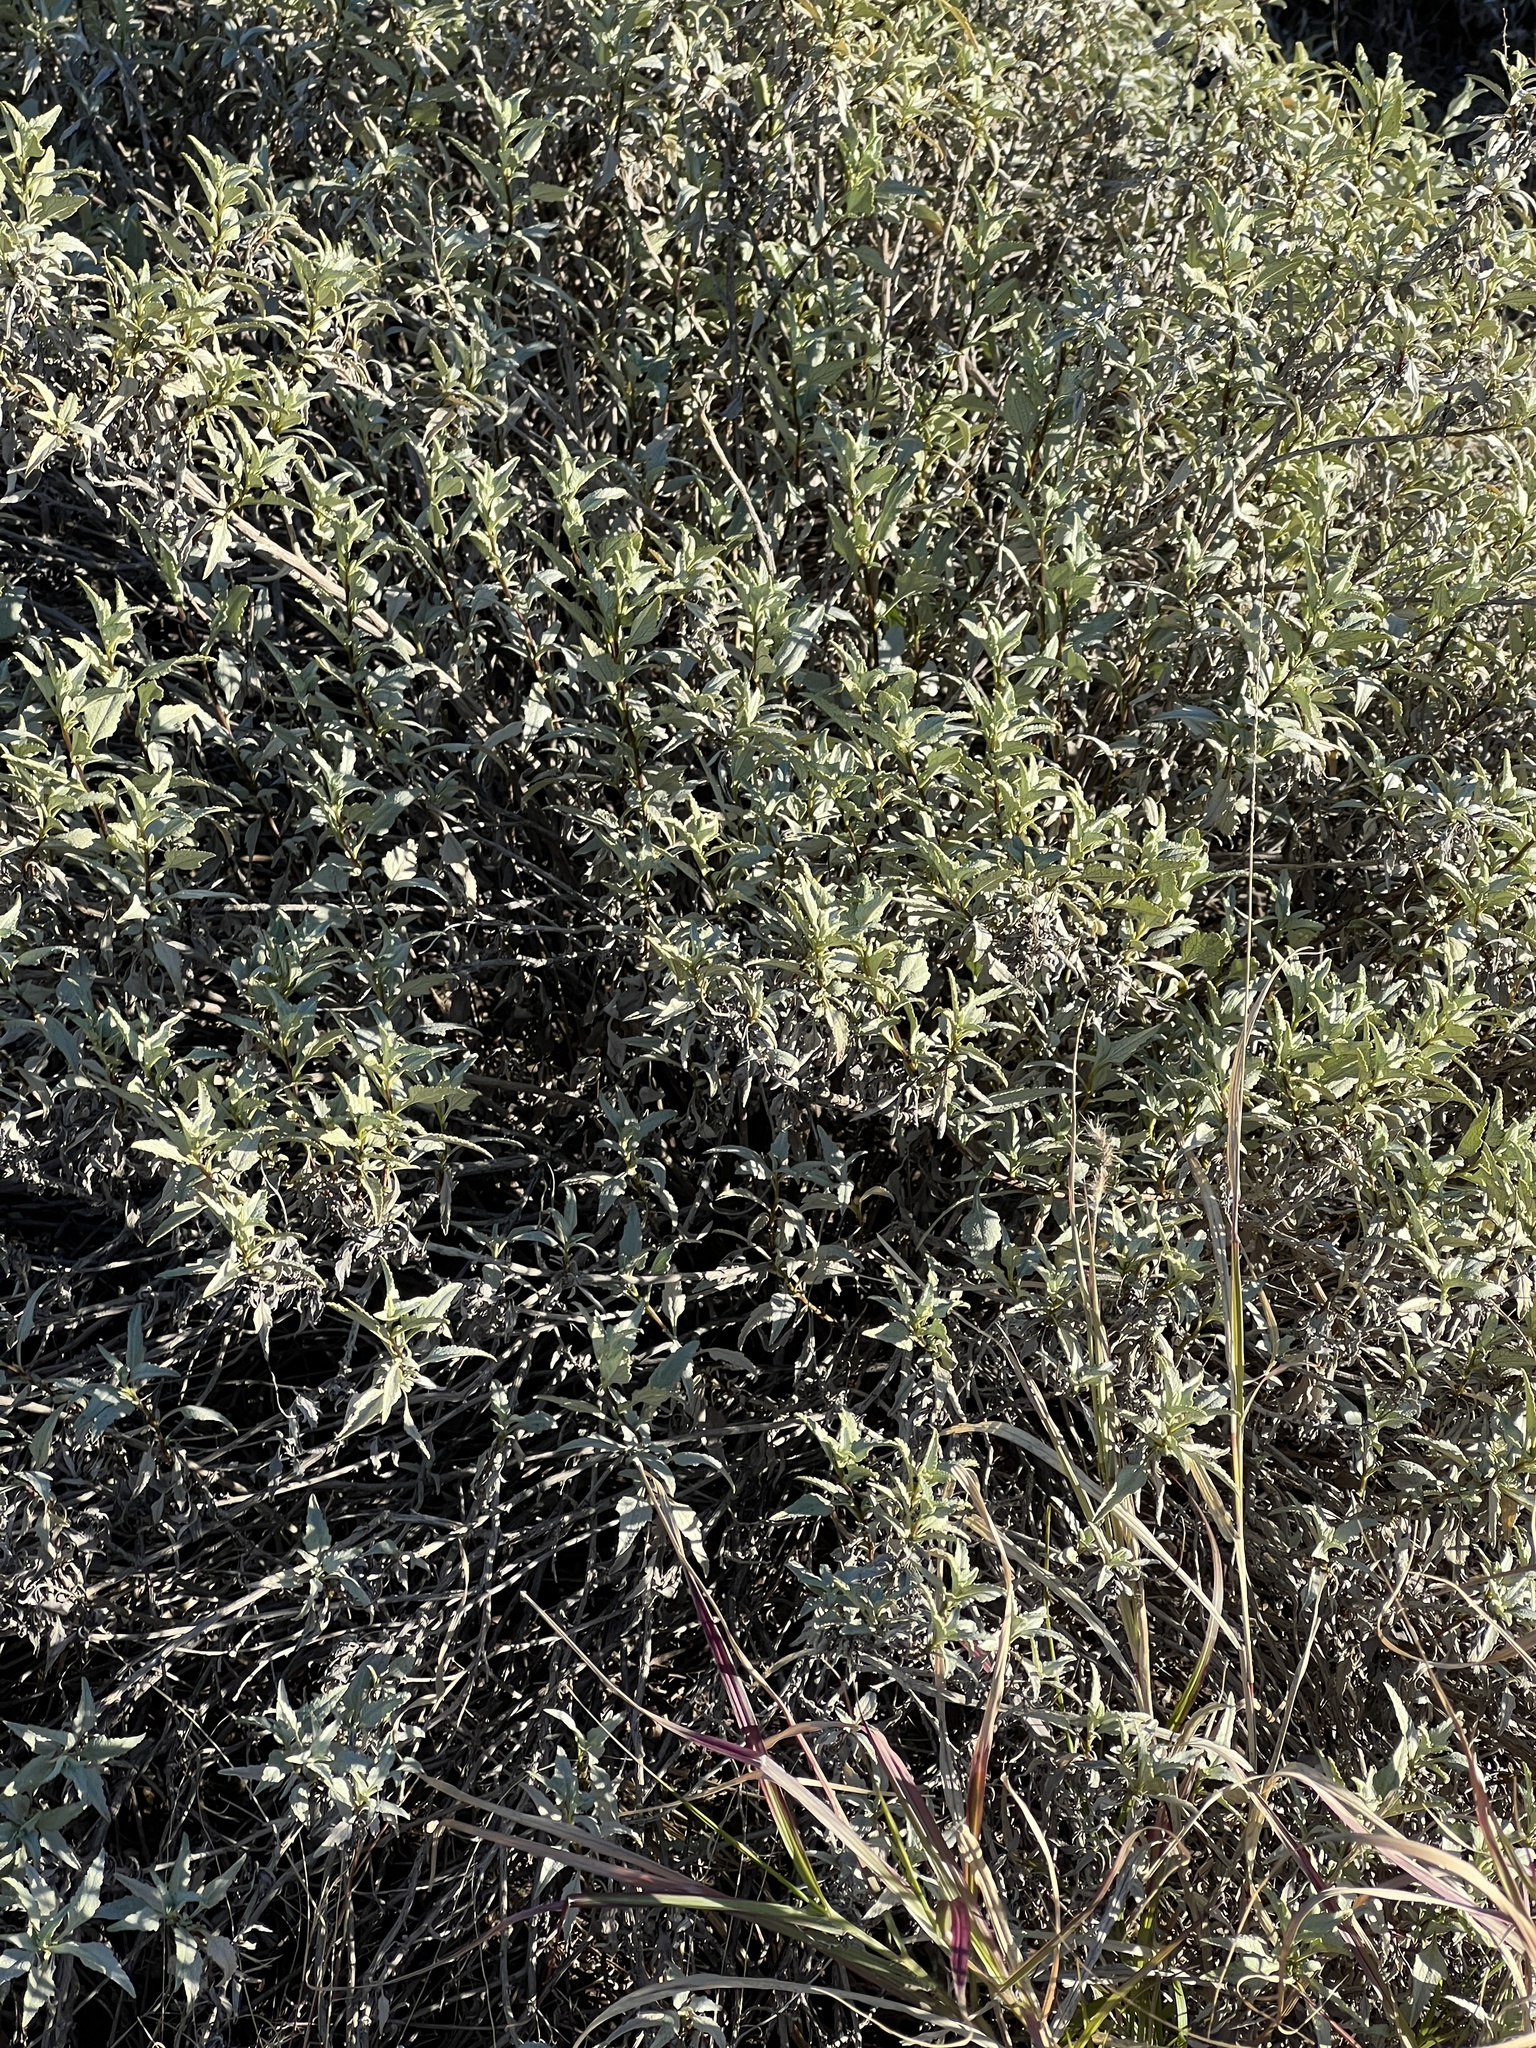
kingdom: Plantae
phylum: Tracheophyta
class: Magnoliopsida
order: Asterales
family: Asteraceae
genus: Ambrosia
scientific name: Ambrosia deltoidea
